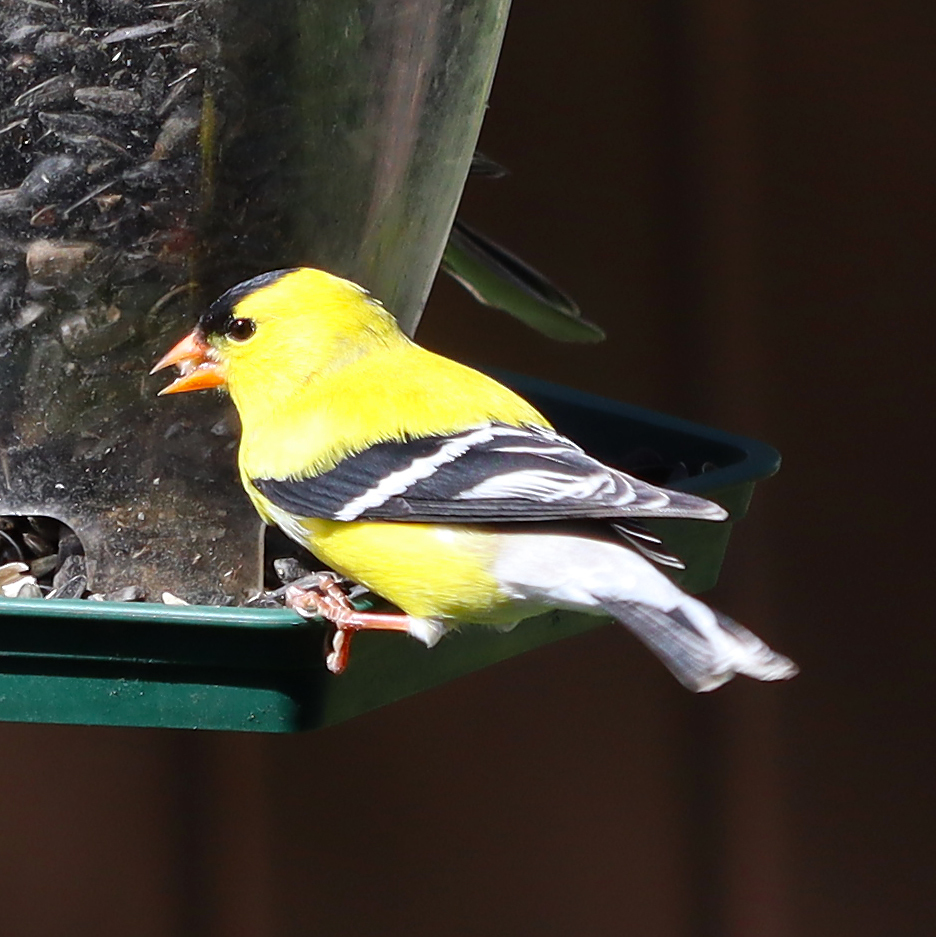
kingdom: Animalia
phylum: Chordata
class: Aves
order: Passeriformes
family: Fringillidae
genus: Spinus
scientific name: Spinus tristis
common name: American goldfinch
